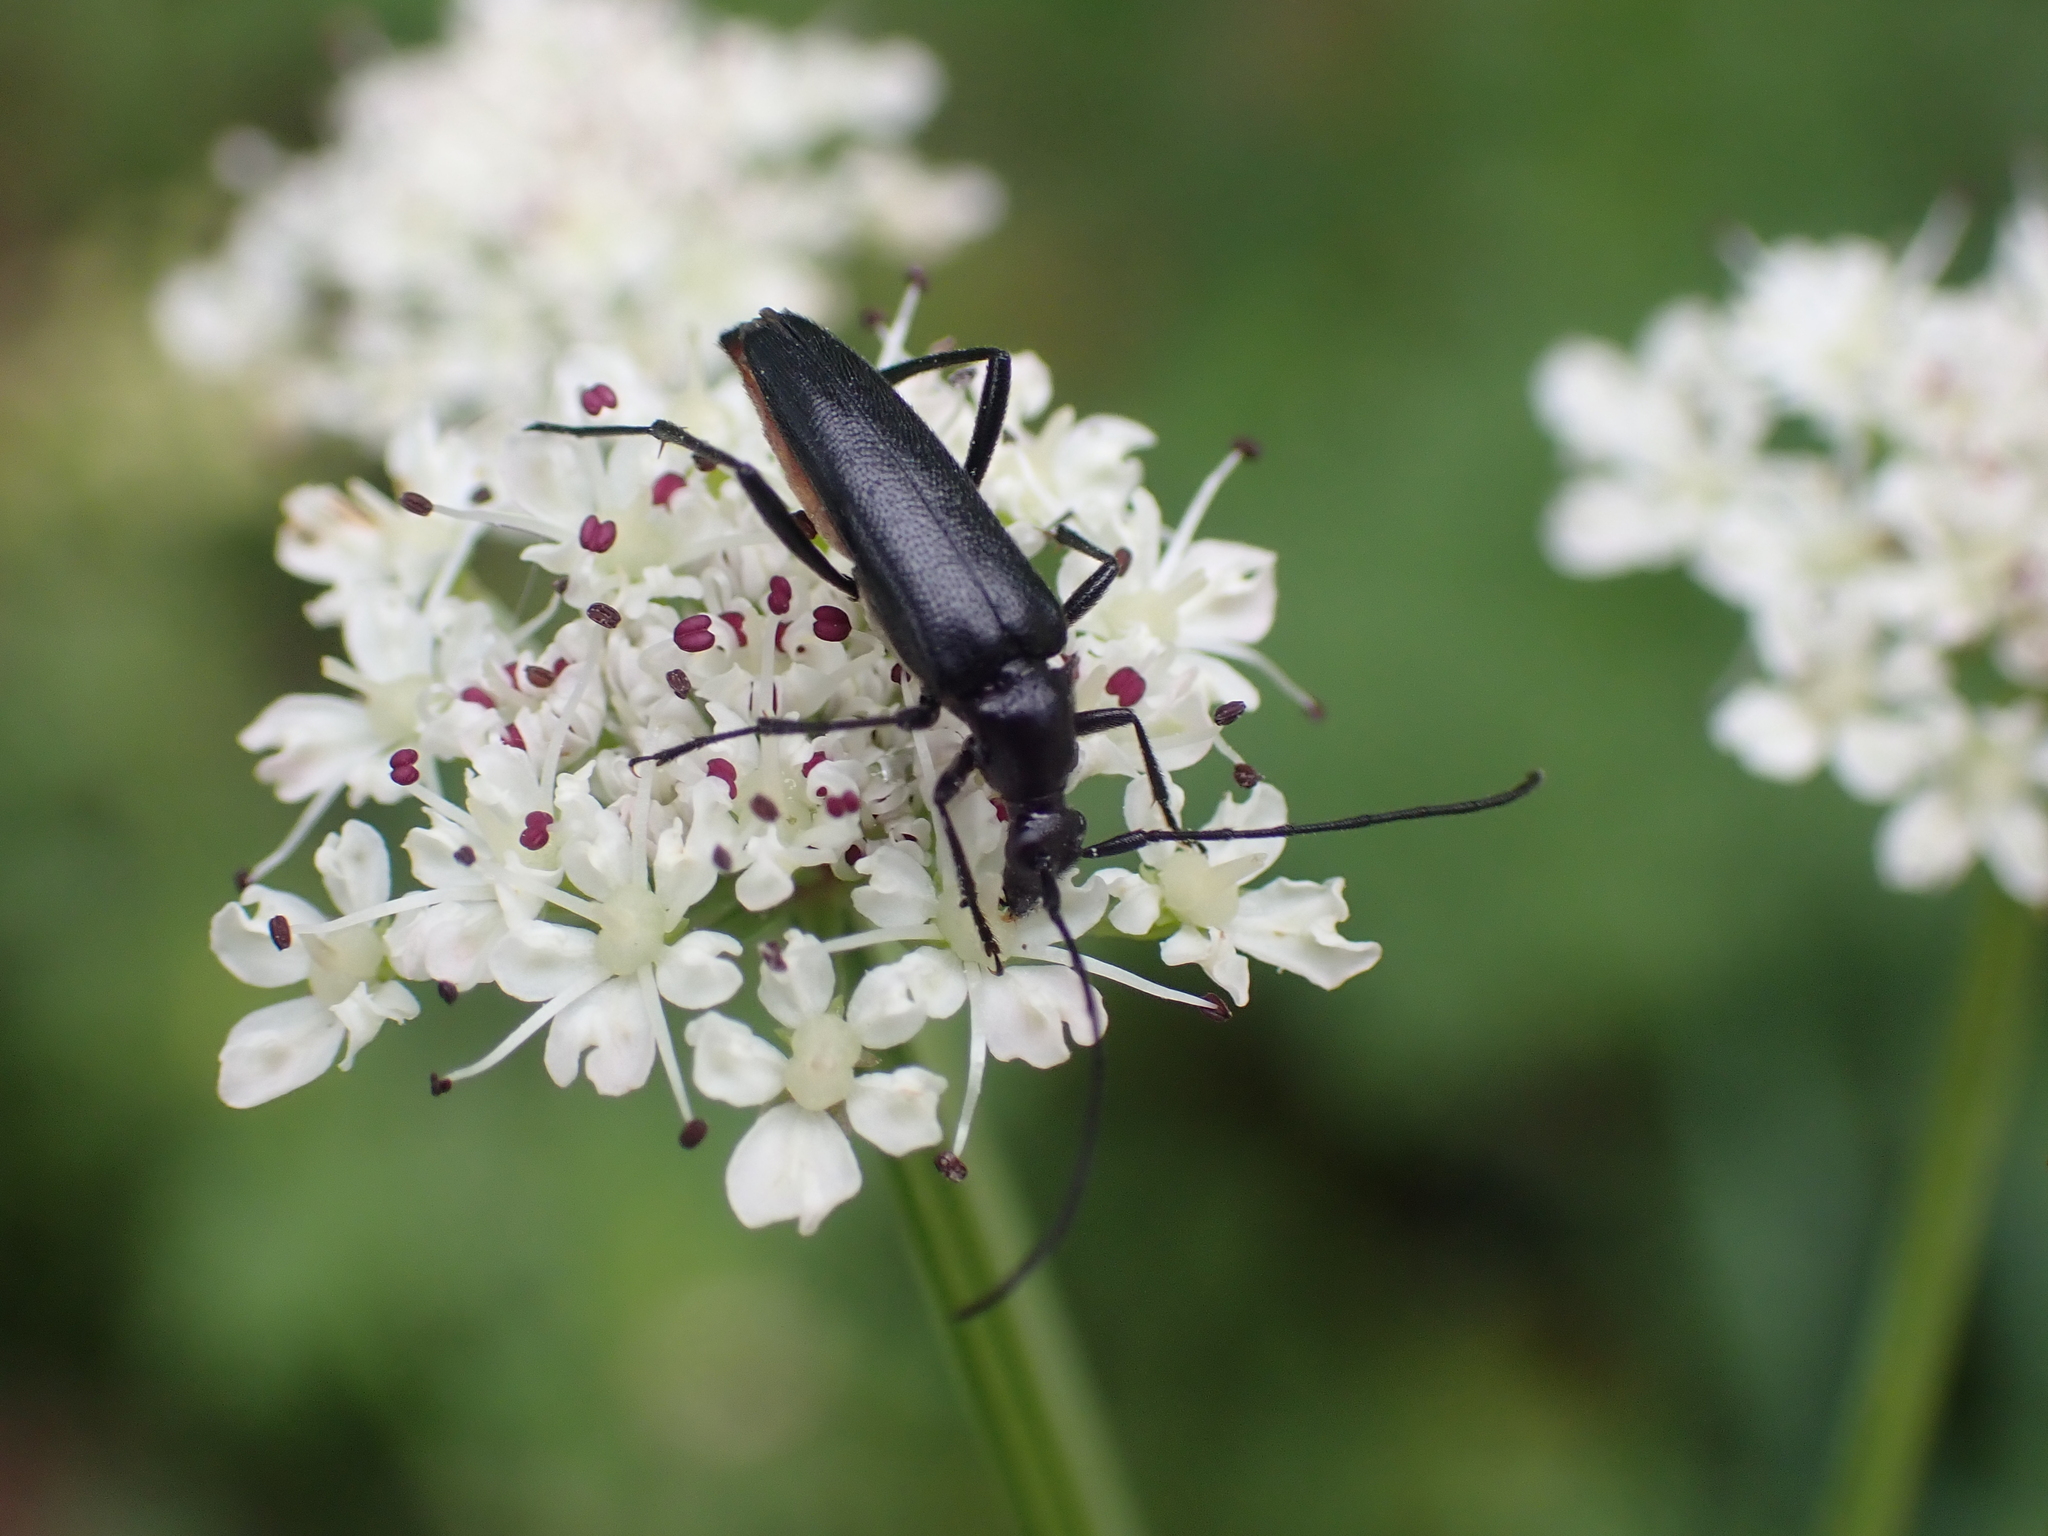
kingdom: Animalia
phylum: Arthropoda
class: Insecta
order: Coleoptera
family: Cerambycidae
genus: Stenurella
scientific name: Stenurella nigra
